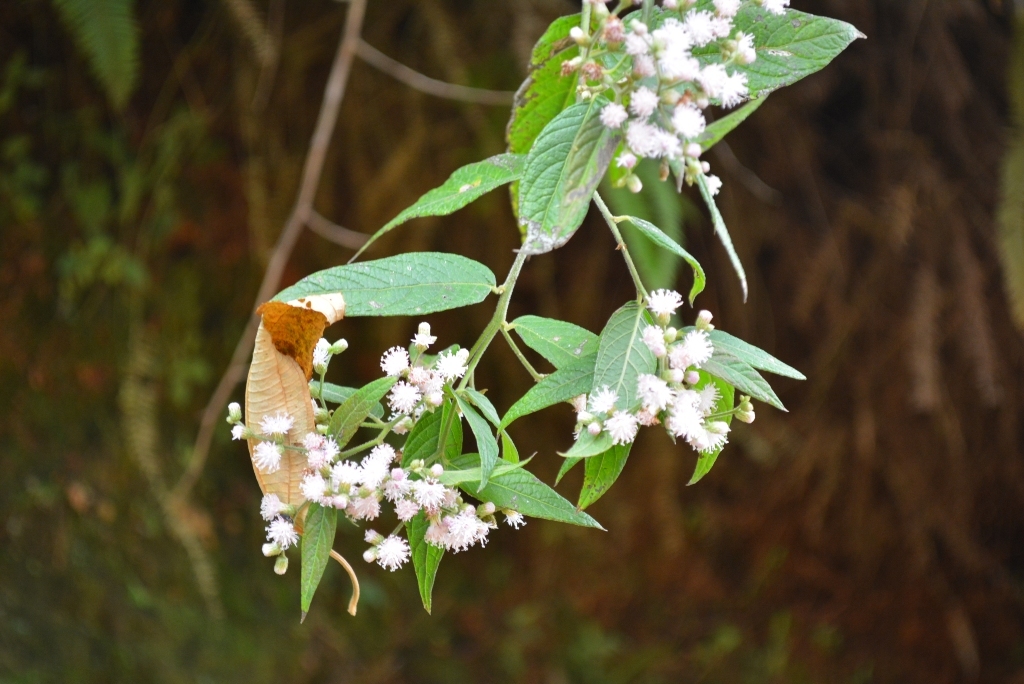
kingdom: Plantae
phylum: Tracheophyta
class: Magnoliopsida
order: Asterales
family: Asteraceae
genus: Lepidaploa
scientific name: Lepidaploa tenella
